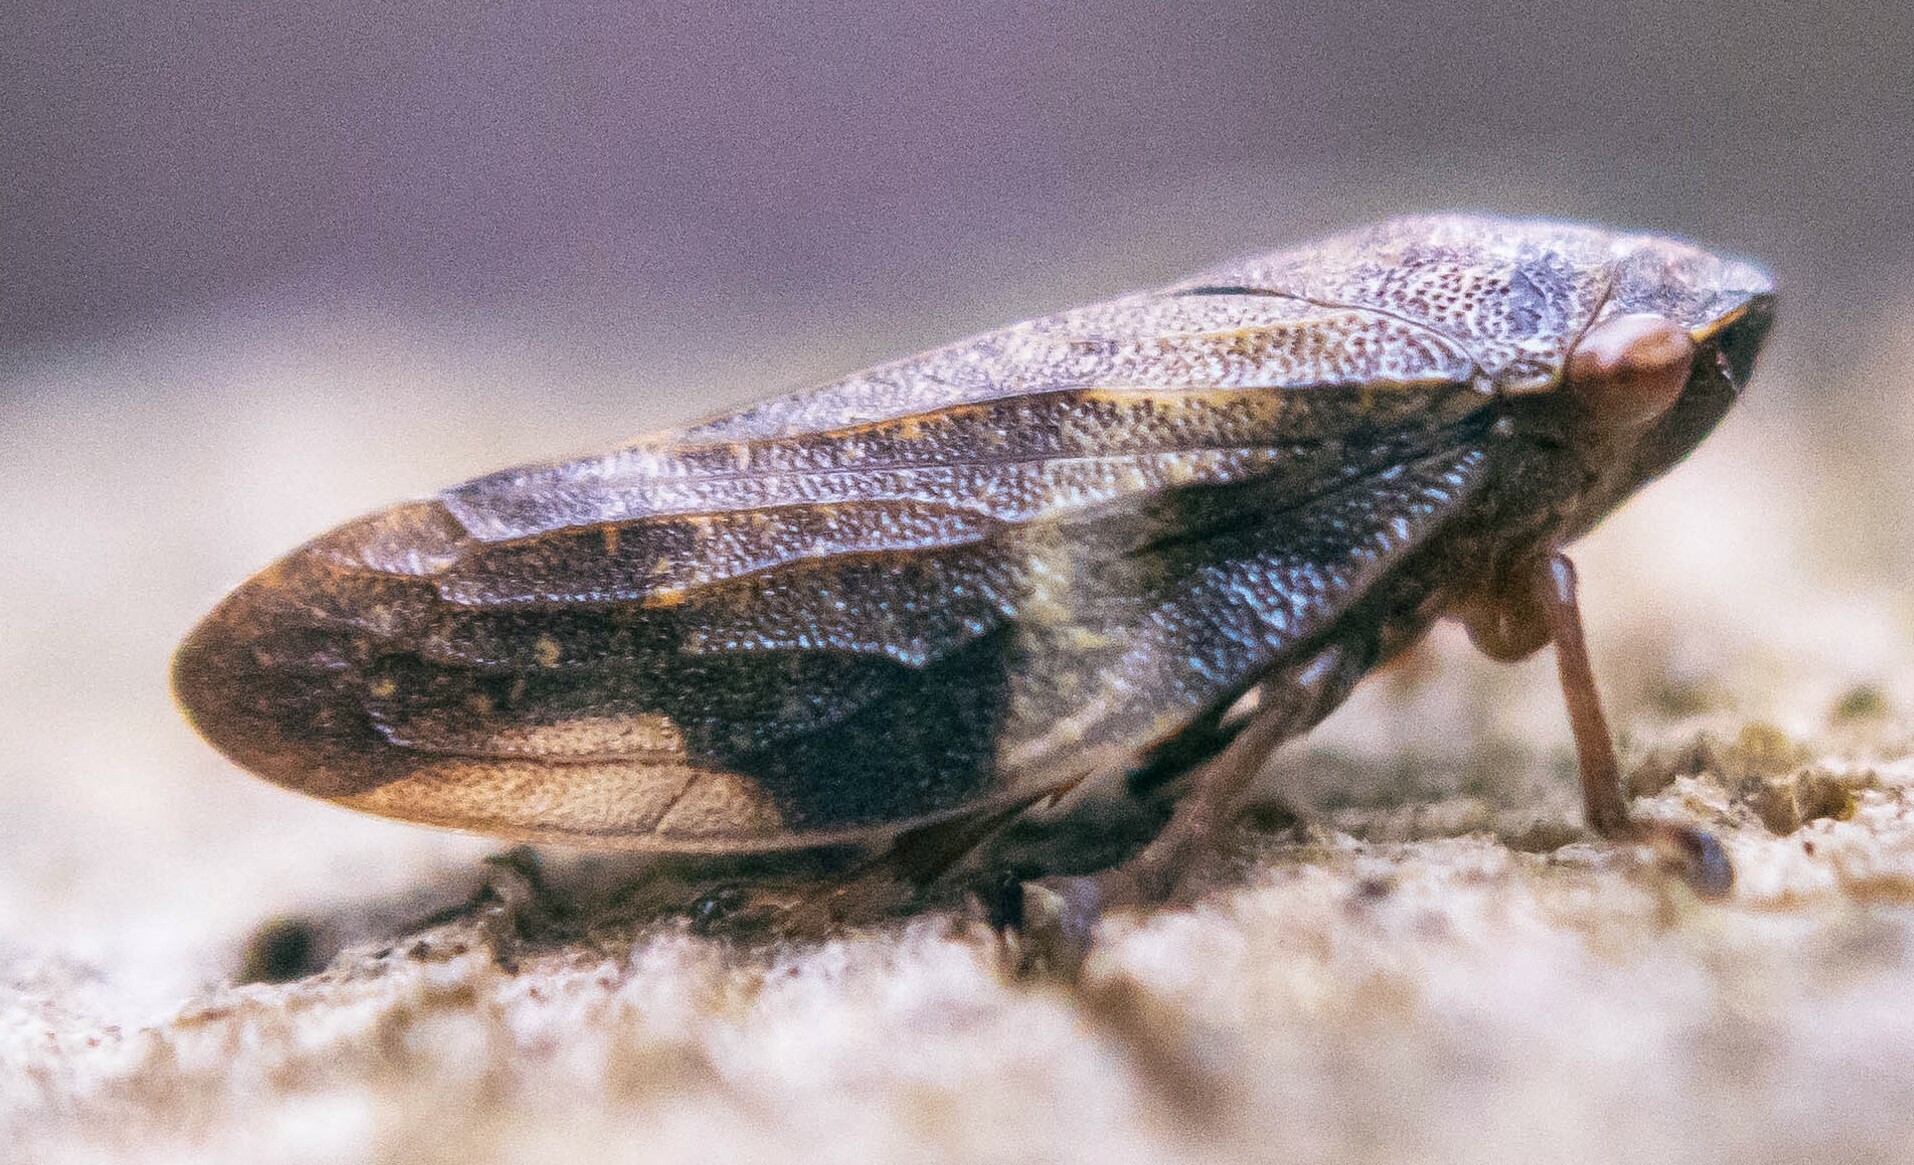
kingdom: Animalia
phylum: Arthropoda
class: Insecta
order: Hemiptera
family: Aphrophoridae
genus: Aphrophora
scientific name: Aphrophora alni
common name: European alder spittlebug
